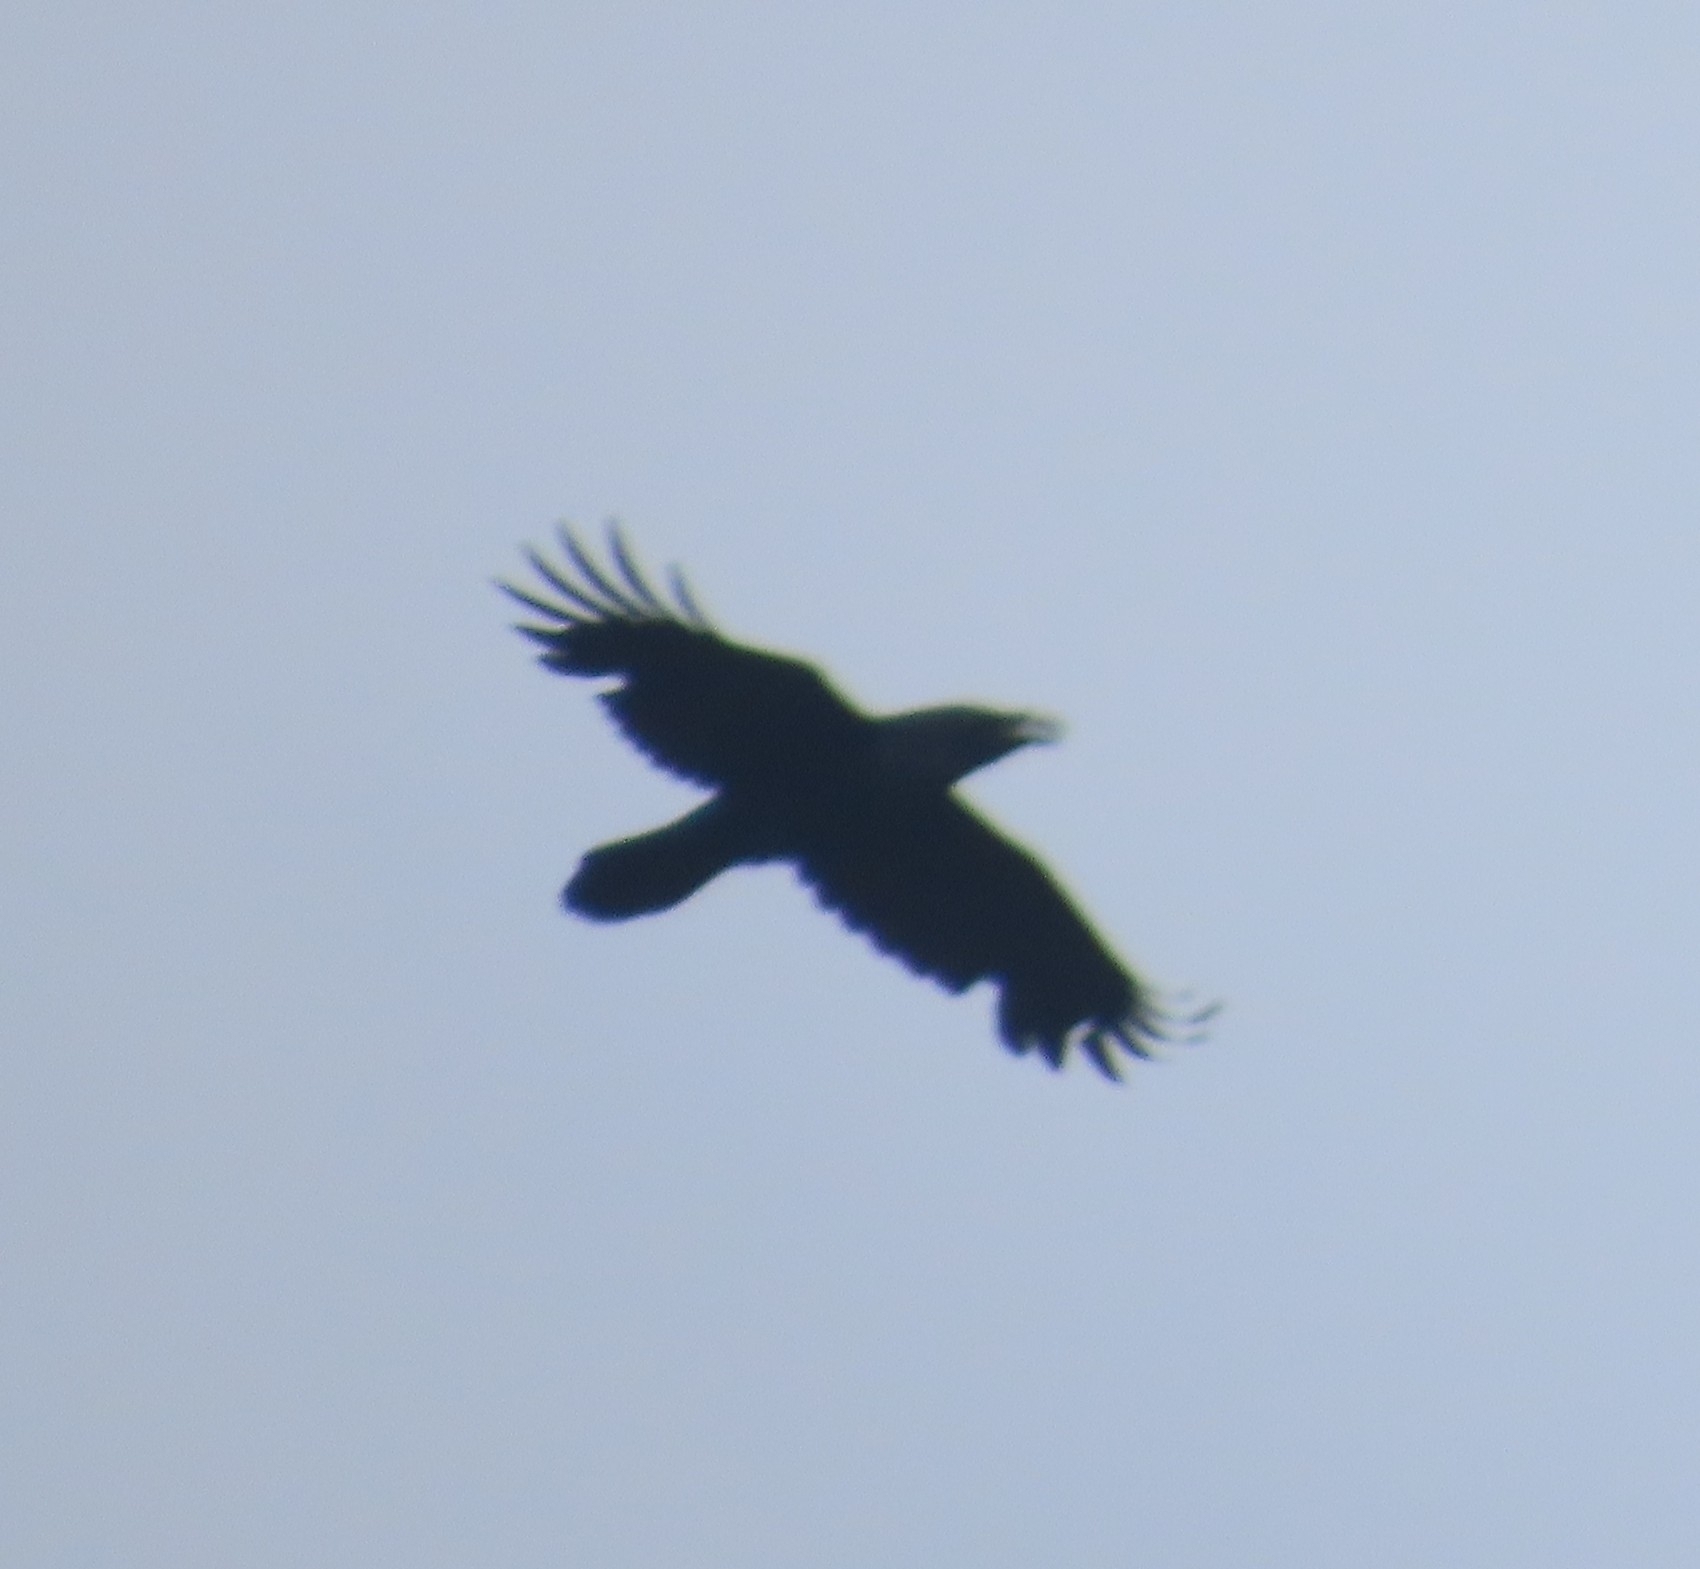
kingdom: Animalia
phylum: Chordata
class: Aves
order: Passeriformes
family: Corvidae
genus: Corvus
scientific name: Corvus corax
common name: Common raven
